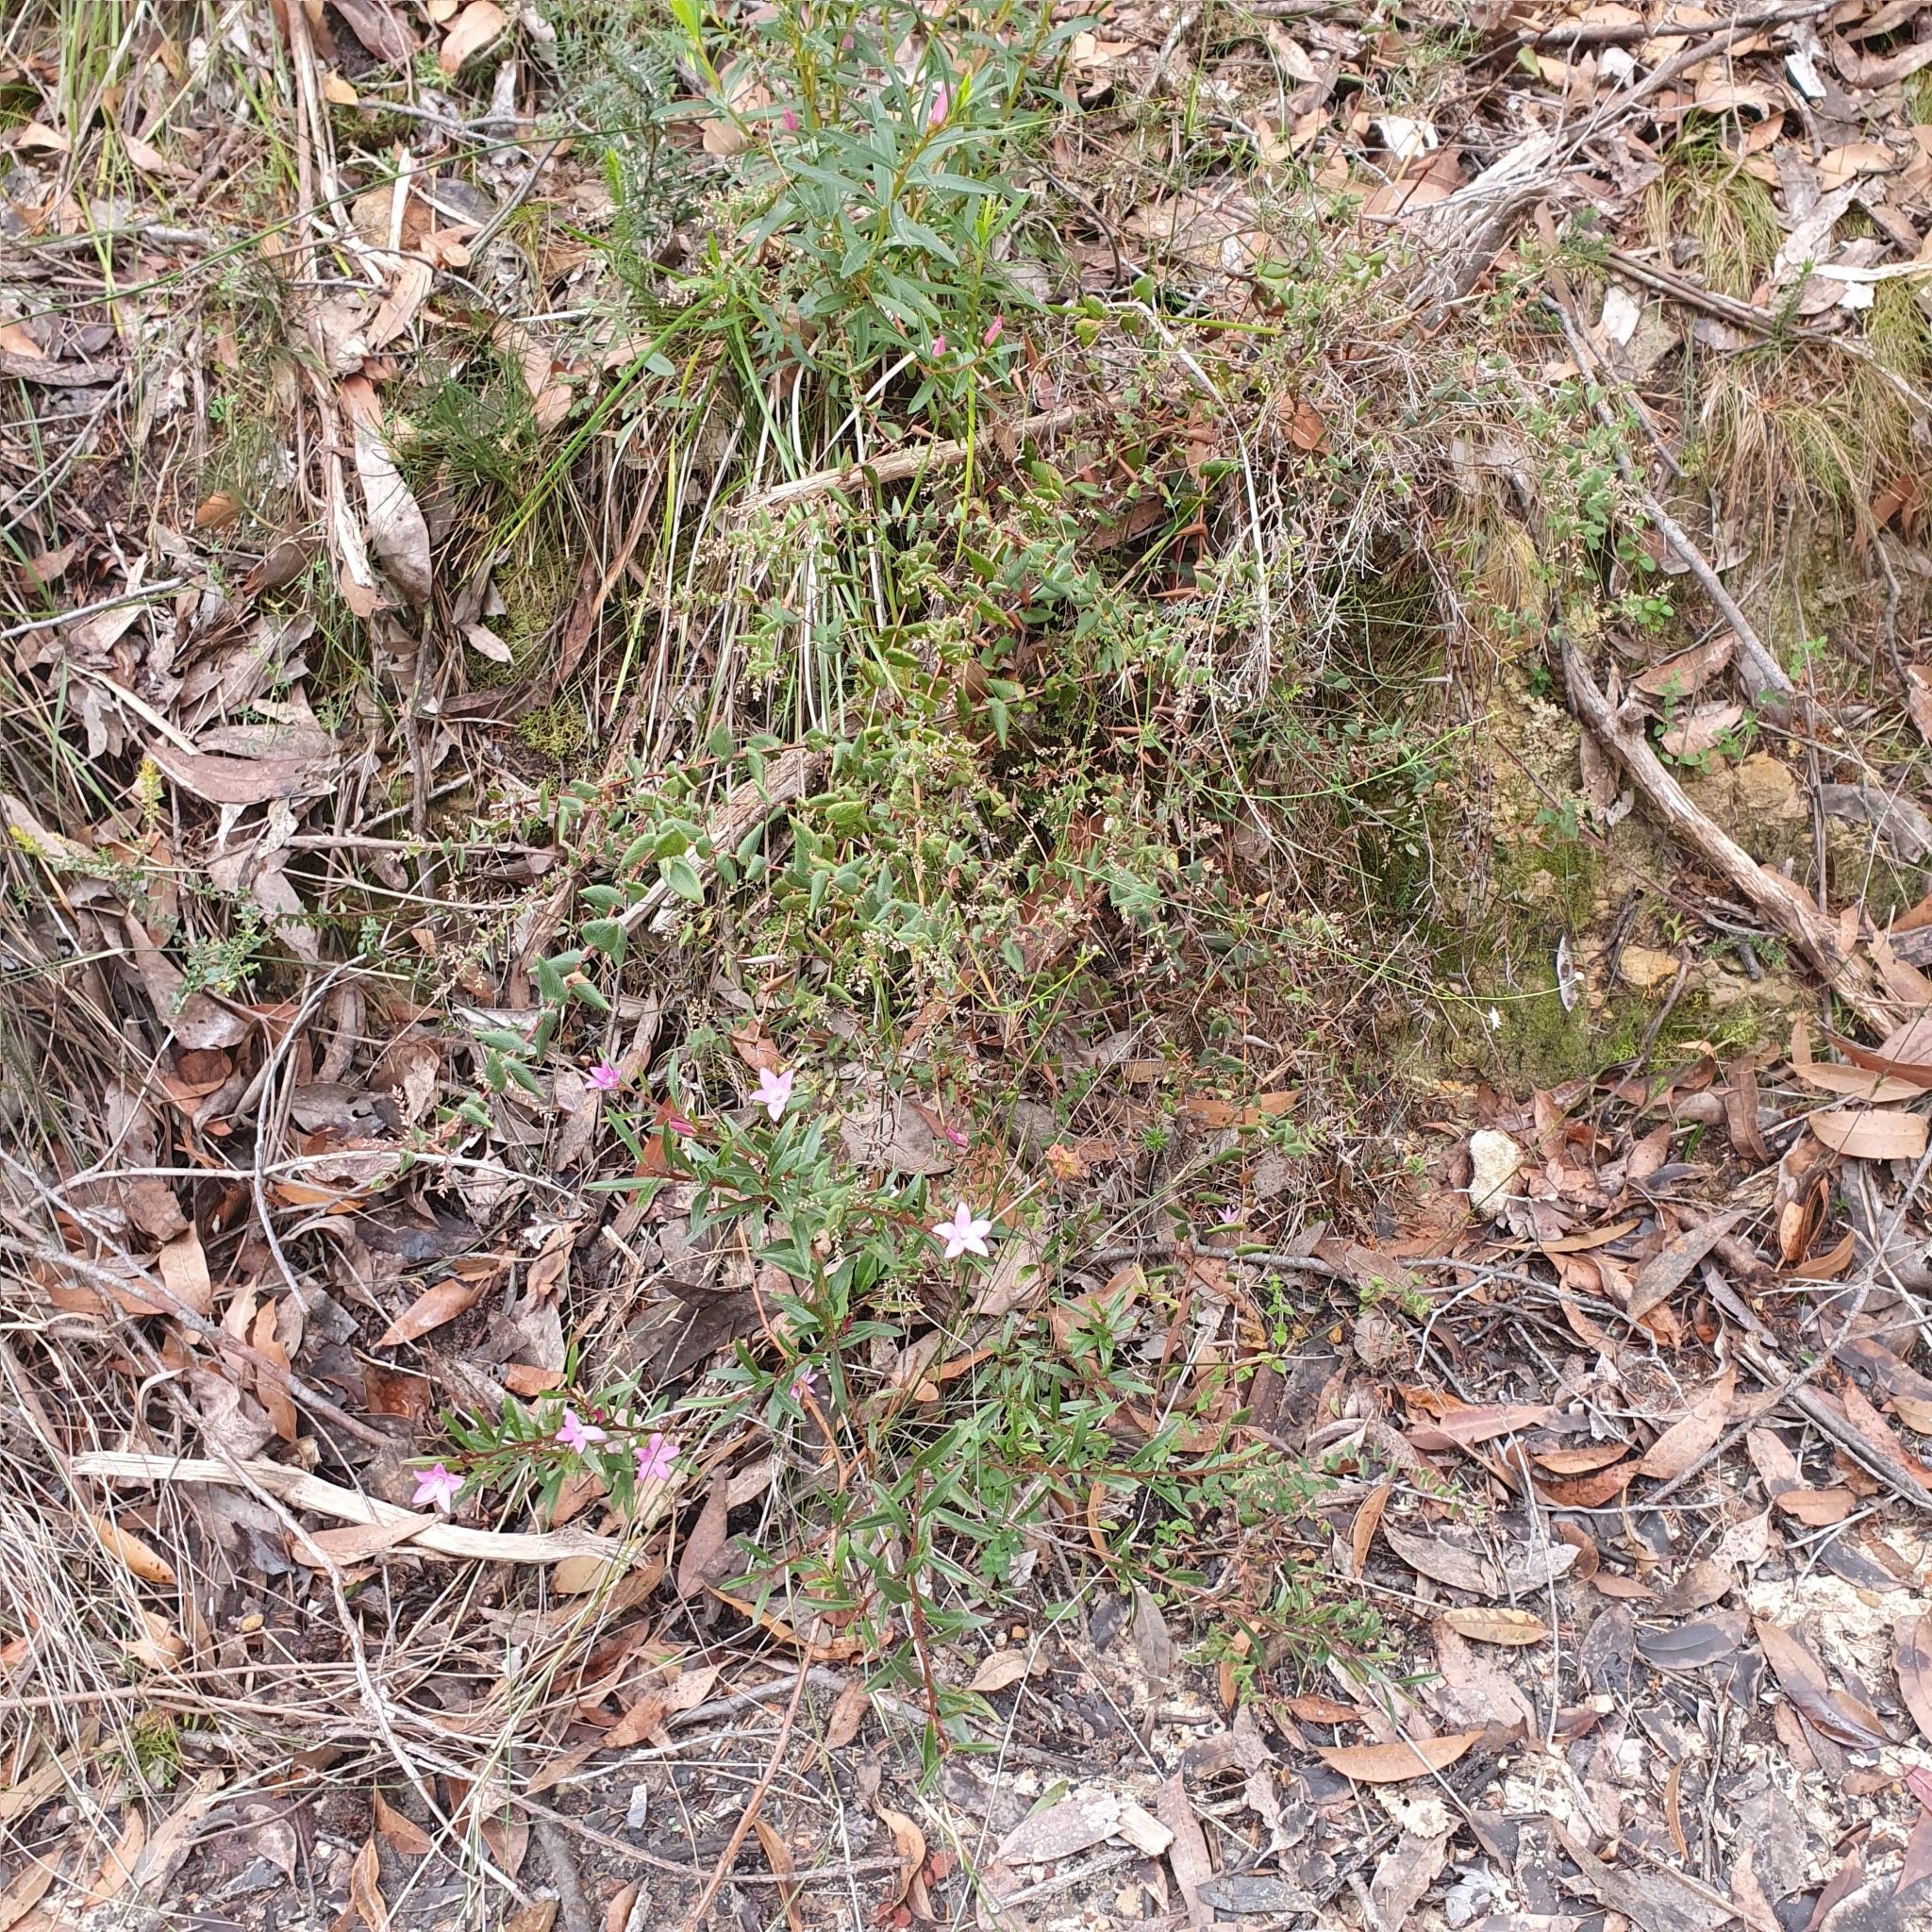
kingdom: Plantae
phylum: Tracheophyta
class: Magnoliopsida
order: Ericales
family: Ericaceae
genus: Leucopogon
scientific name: Leucopogon amplexicaulis
